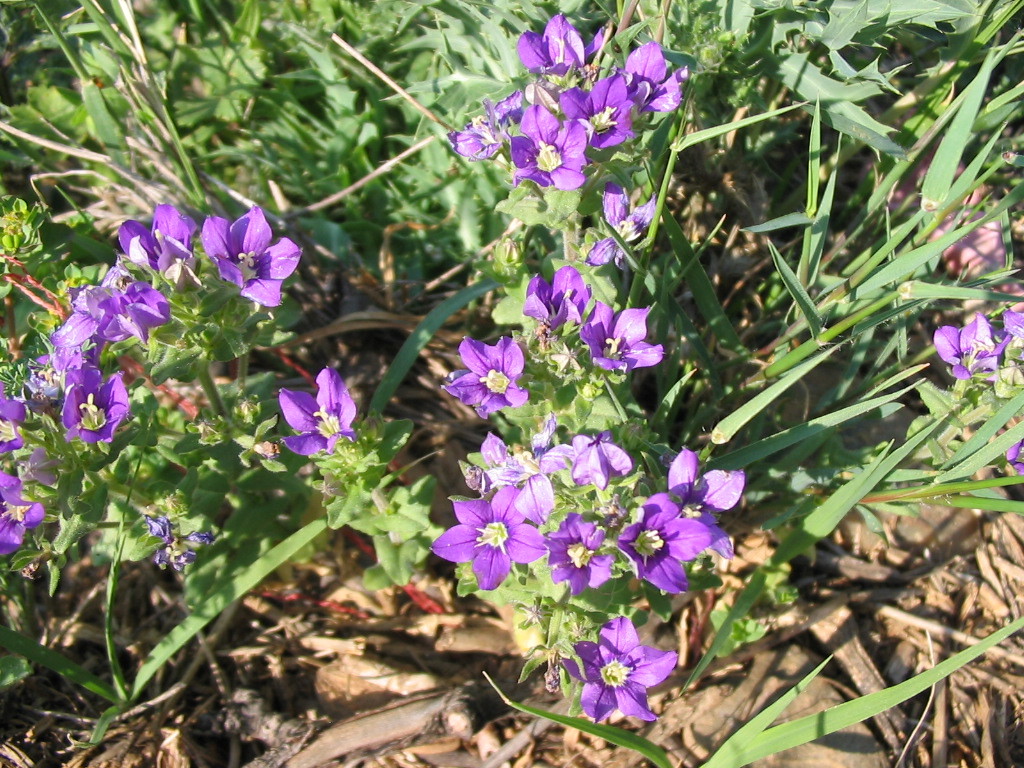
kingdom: Plantae
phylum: Tracheophyta
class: Magnoliopsida
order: Asterales
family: Campanulaceae
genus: Legousia
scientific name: Legousia speculum-veneris
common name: Large venus's-looking-glass
